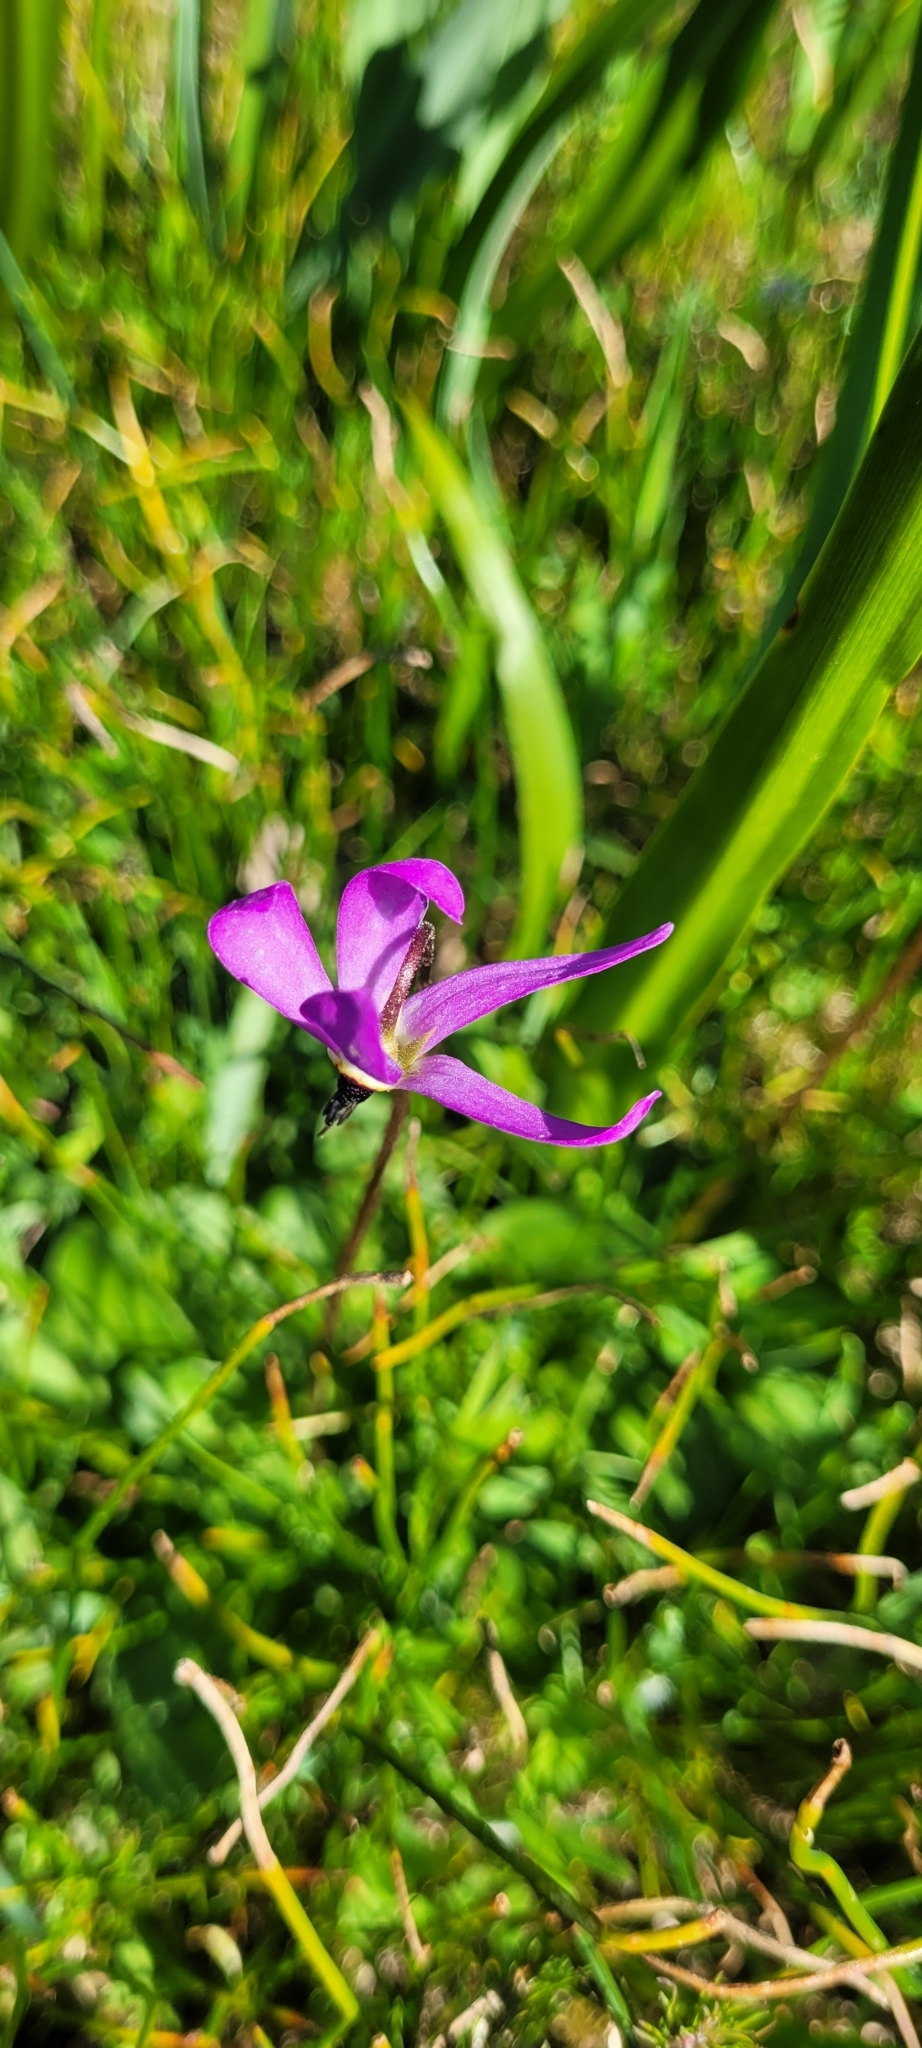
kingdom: Plantae
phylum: Tracheophyta
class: Magnoliopsida
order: Ericales
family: Primulaceae
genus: Dodecatheon
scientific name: Dodecatheon hendersonii
